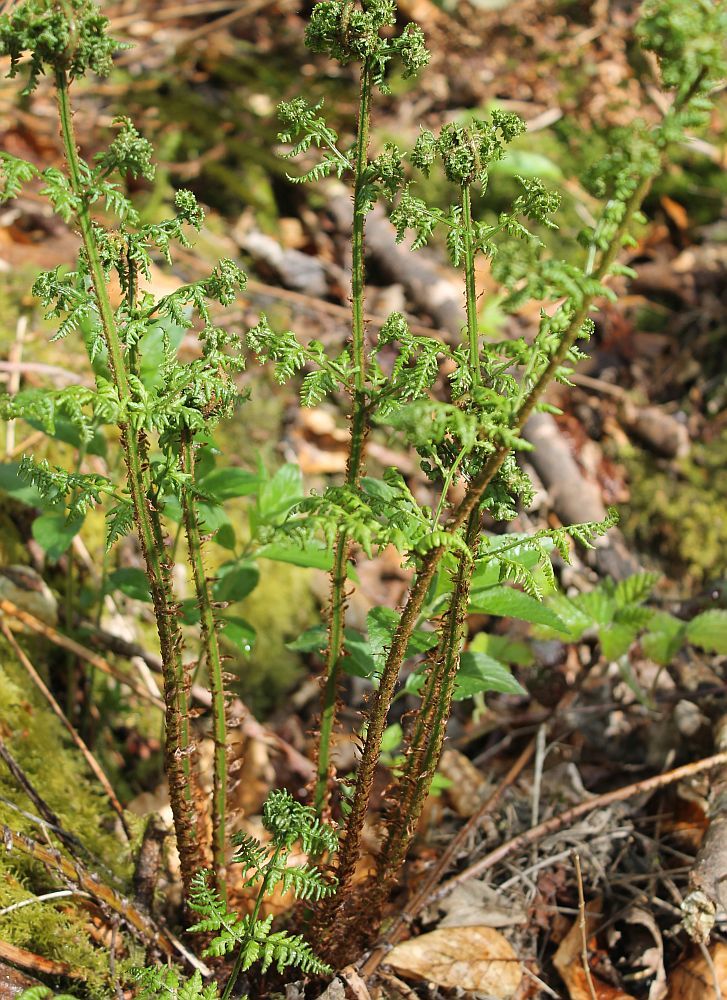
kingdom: Plantae
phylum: Tracheophyta
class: Polypodiopsida
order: Polypodiales
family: Dryopteridaceae
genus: Dryopteris
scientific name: Dryopteris dilatata
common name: Broad buckler-fern
